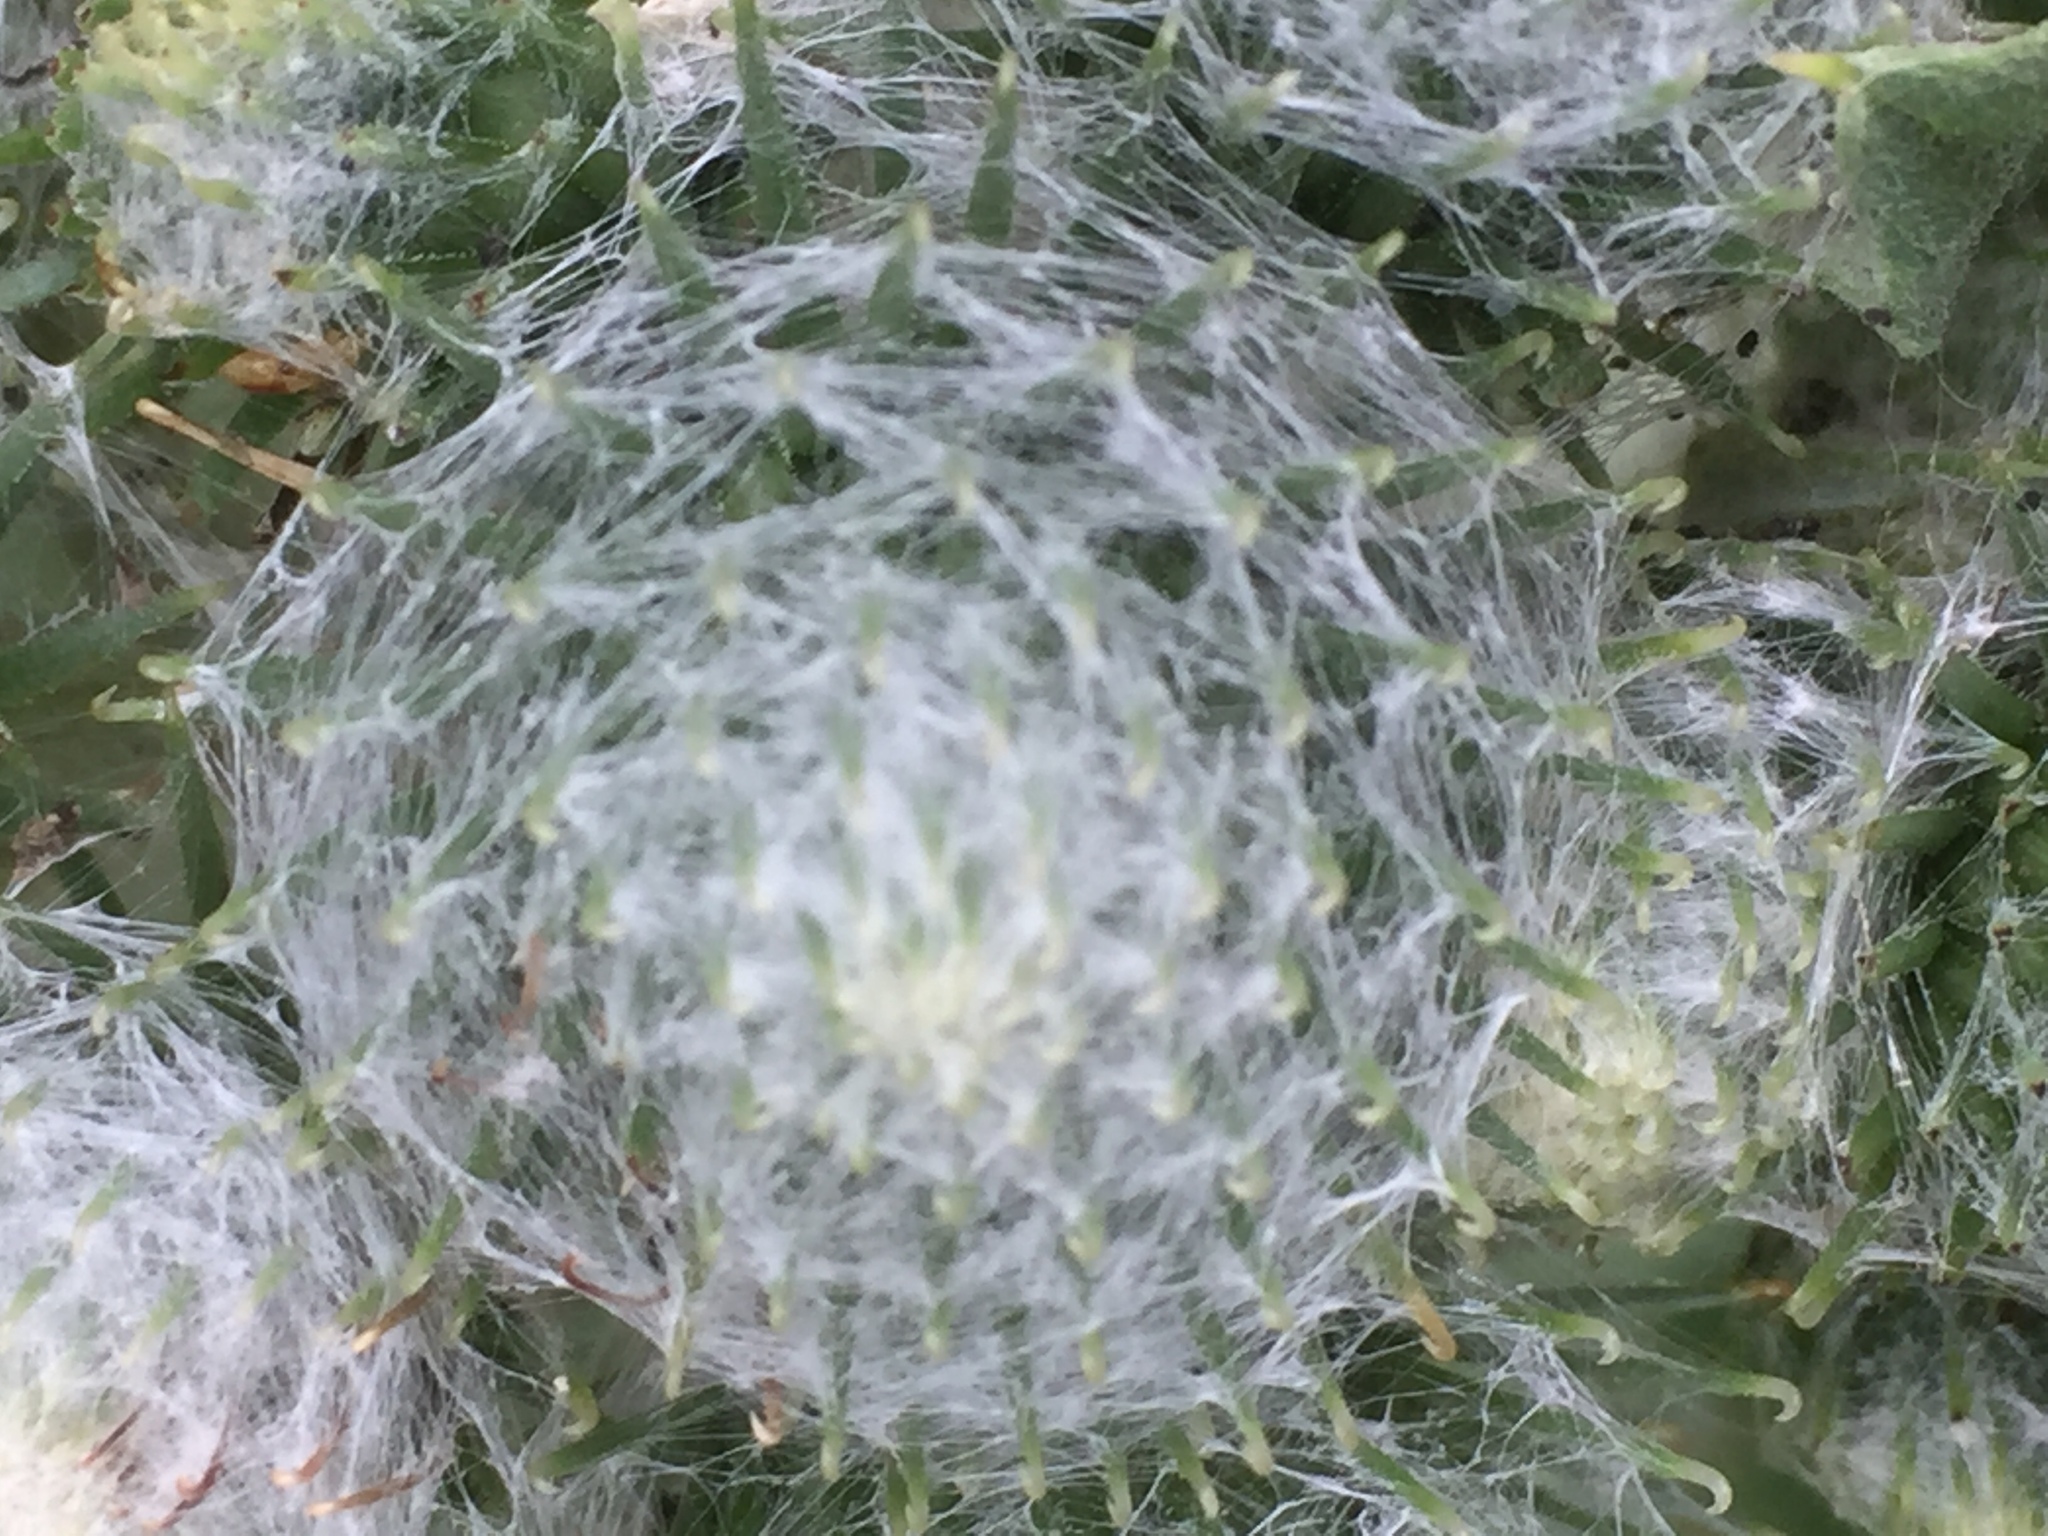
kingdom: Plantae
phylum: Tracheophyta
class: Magnoliopsida
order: Asterales
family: Asteraceae
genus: Arctium
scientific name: Arctium tomentosum
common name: Woolly burdock
